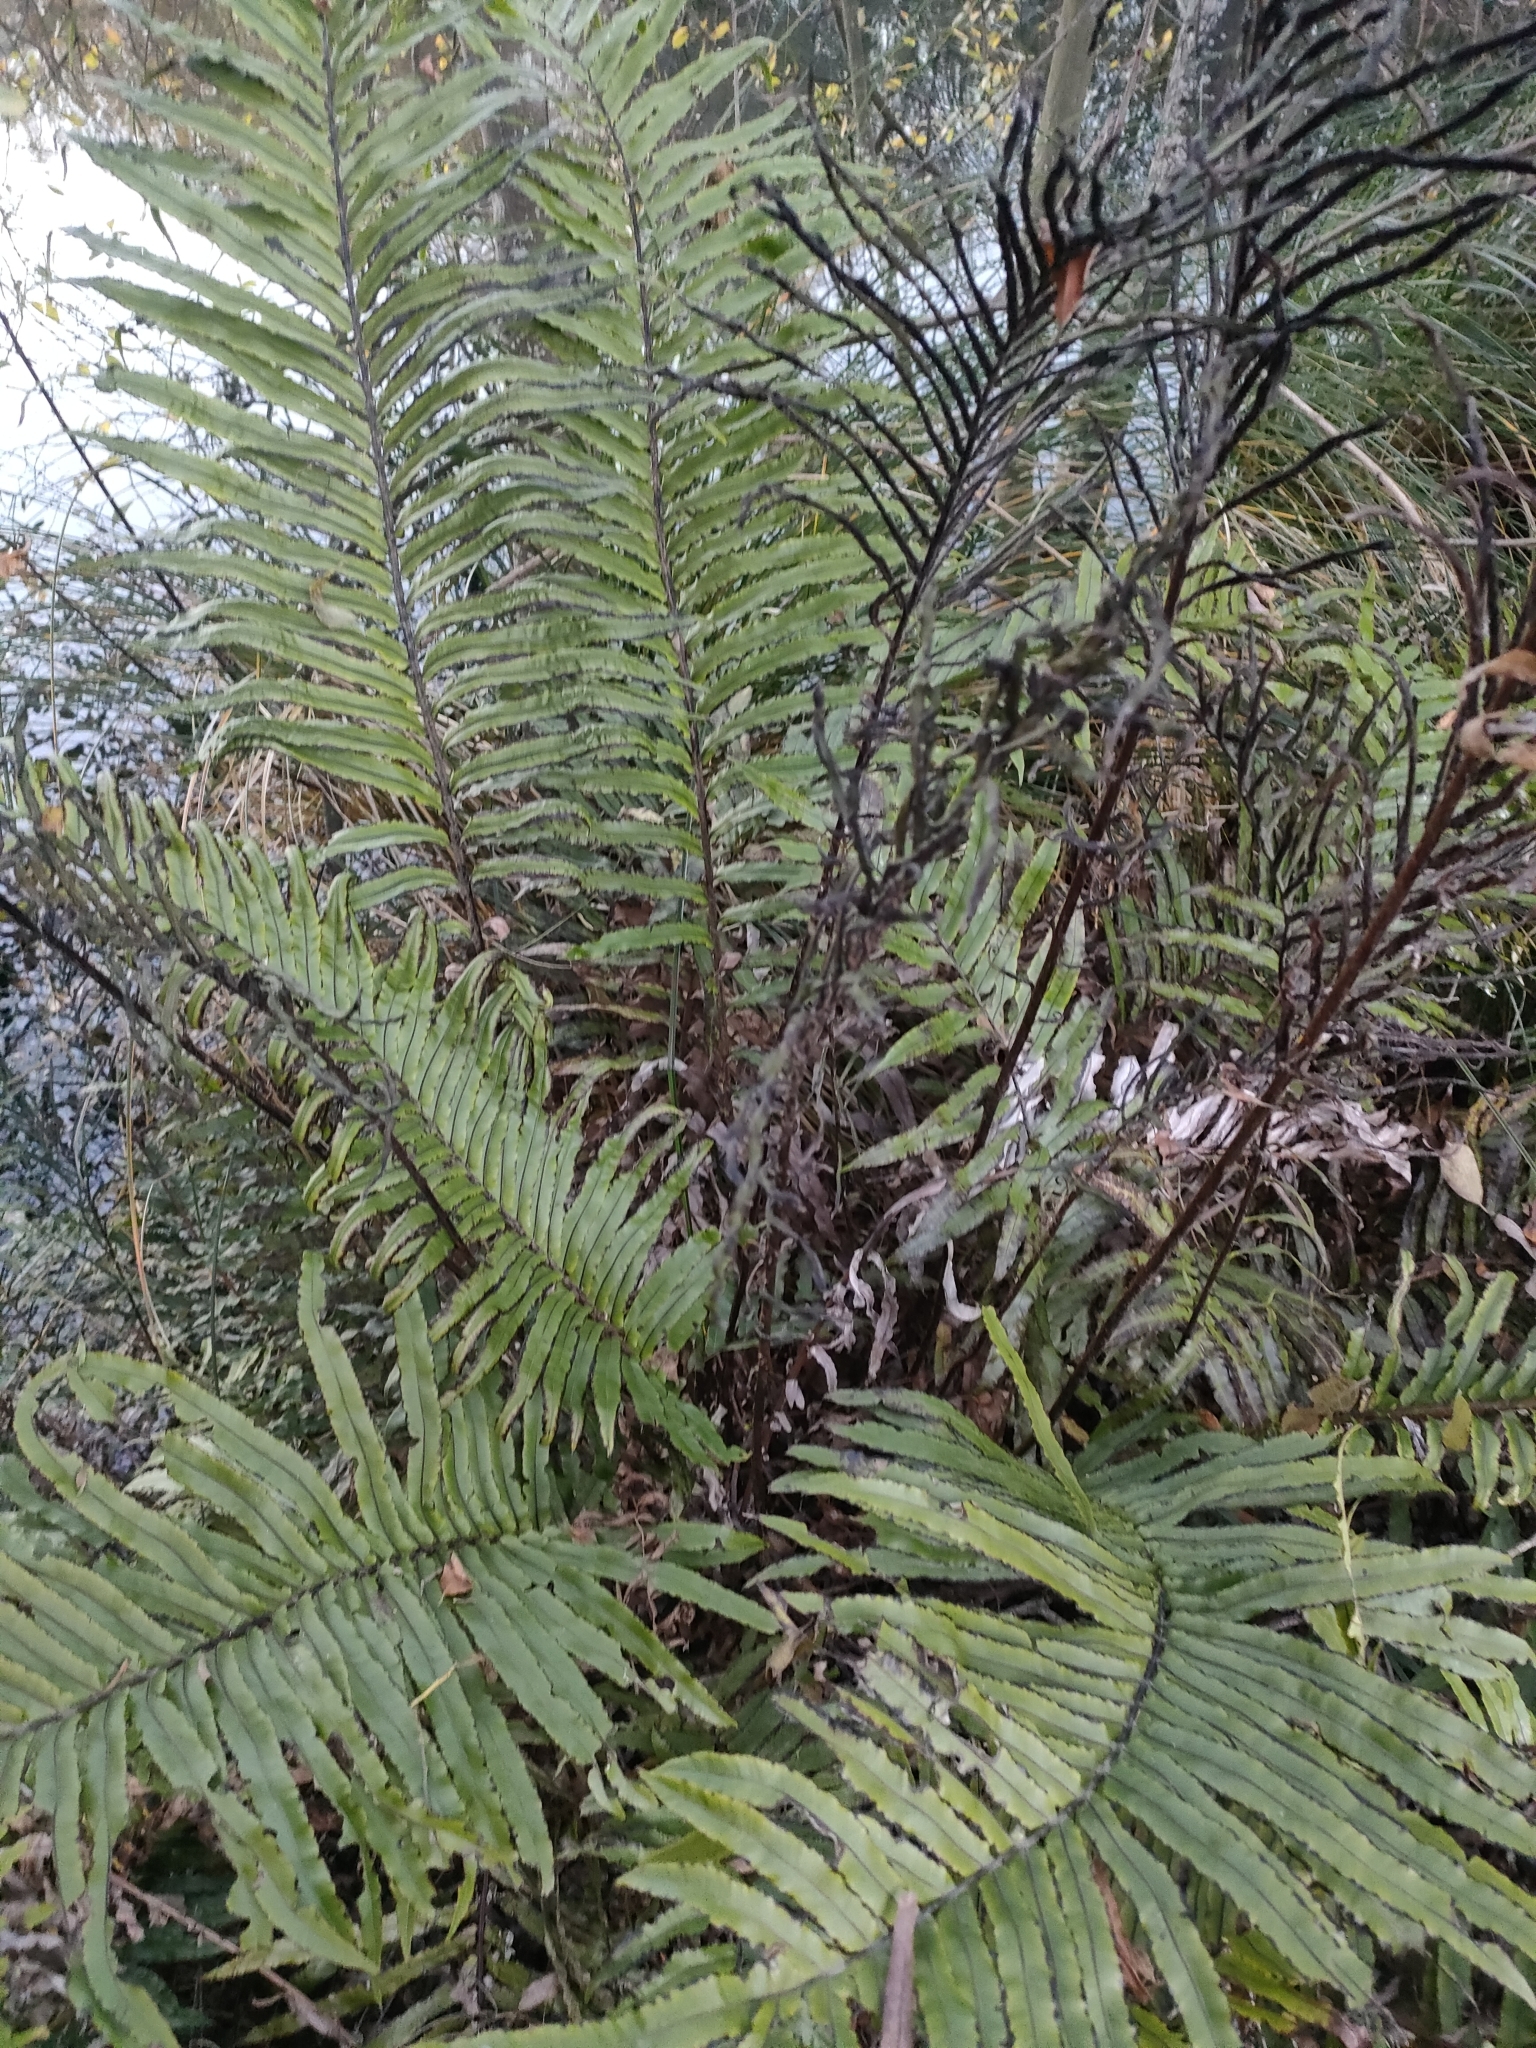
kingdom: Plantae
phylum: Tracheophyta
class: Polypodiopsida
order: Polypodiales
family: Blechnaceae
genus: Parablechnum
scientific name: Parablechnum minus
